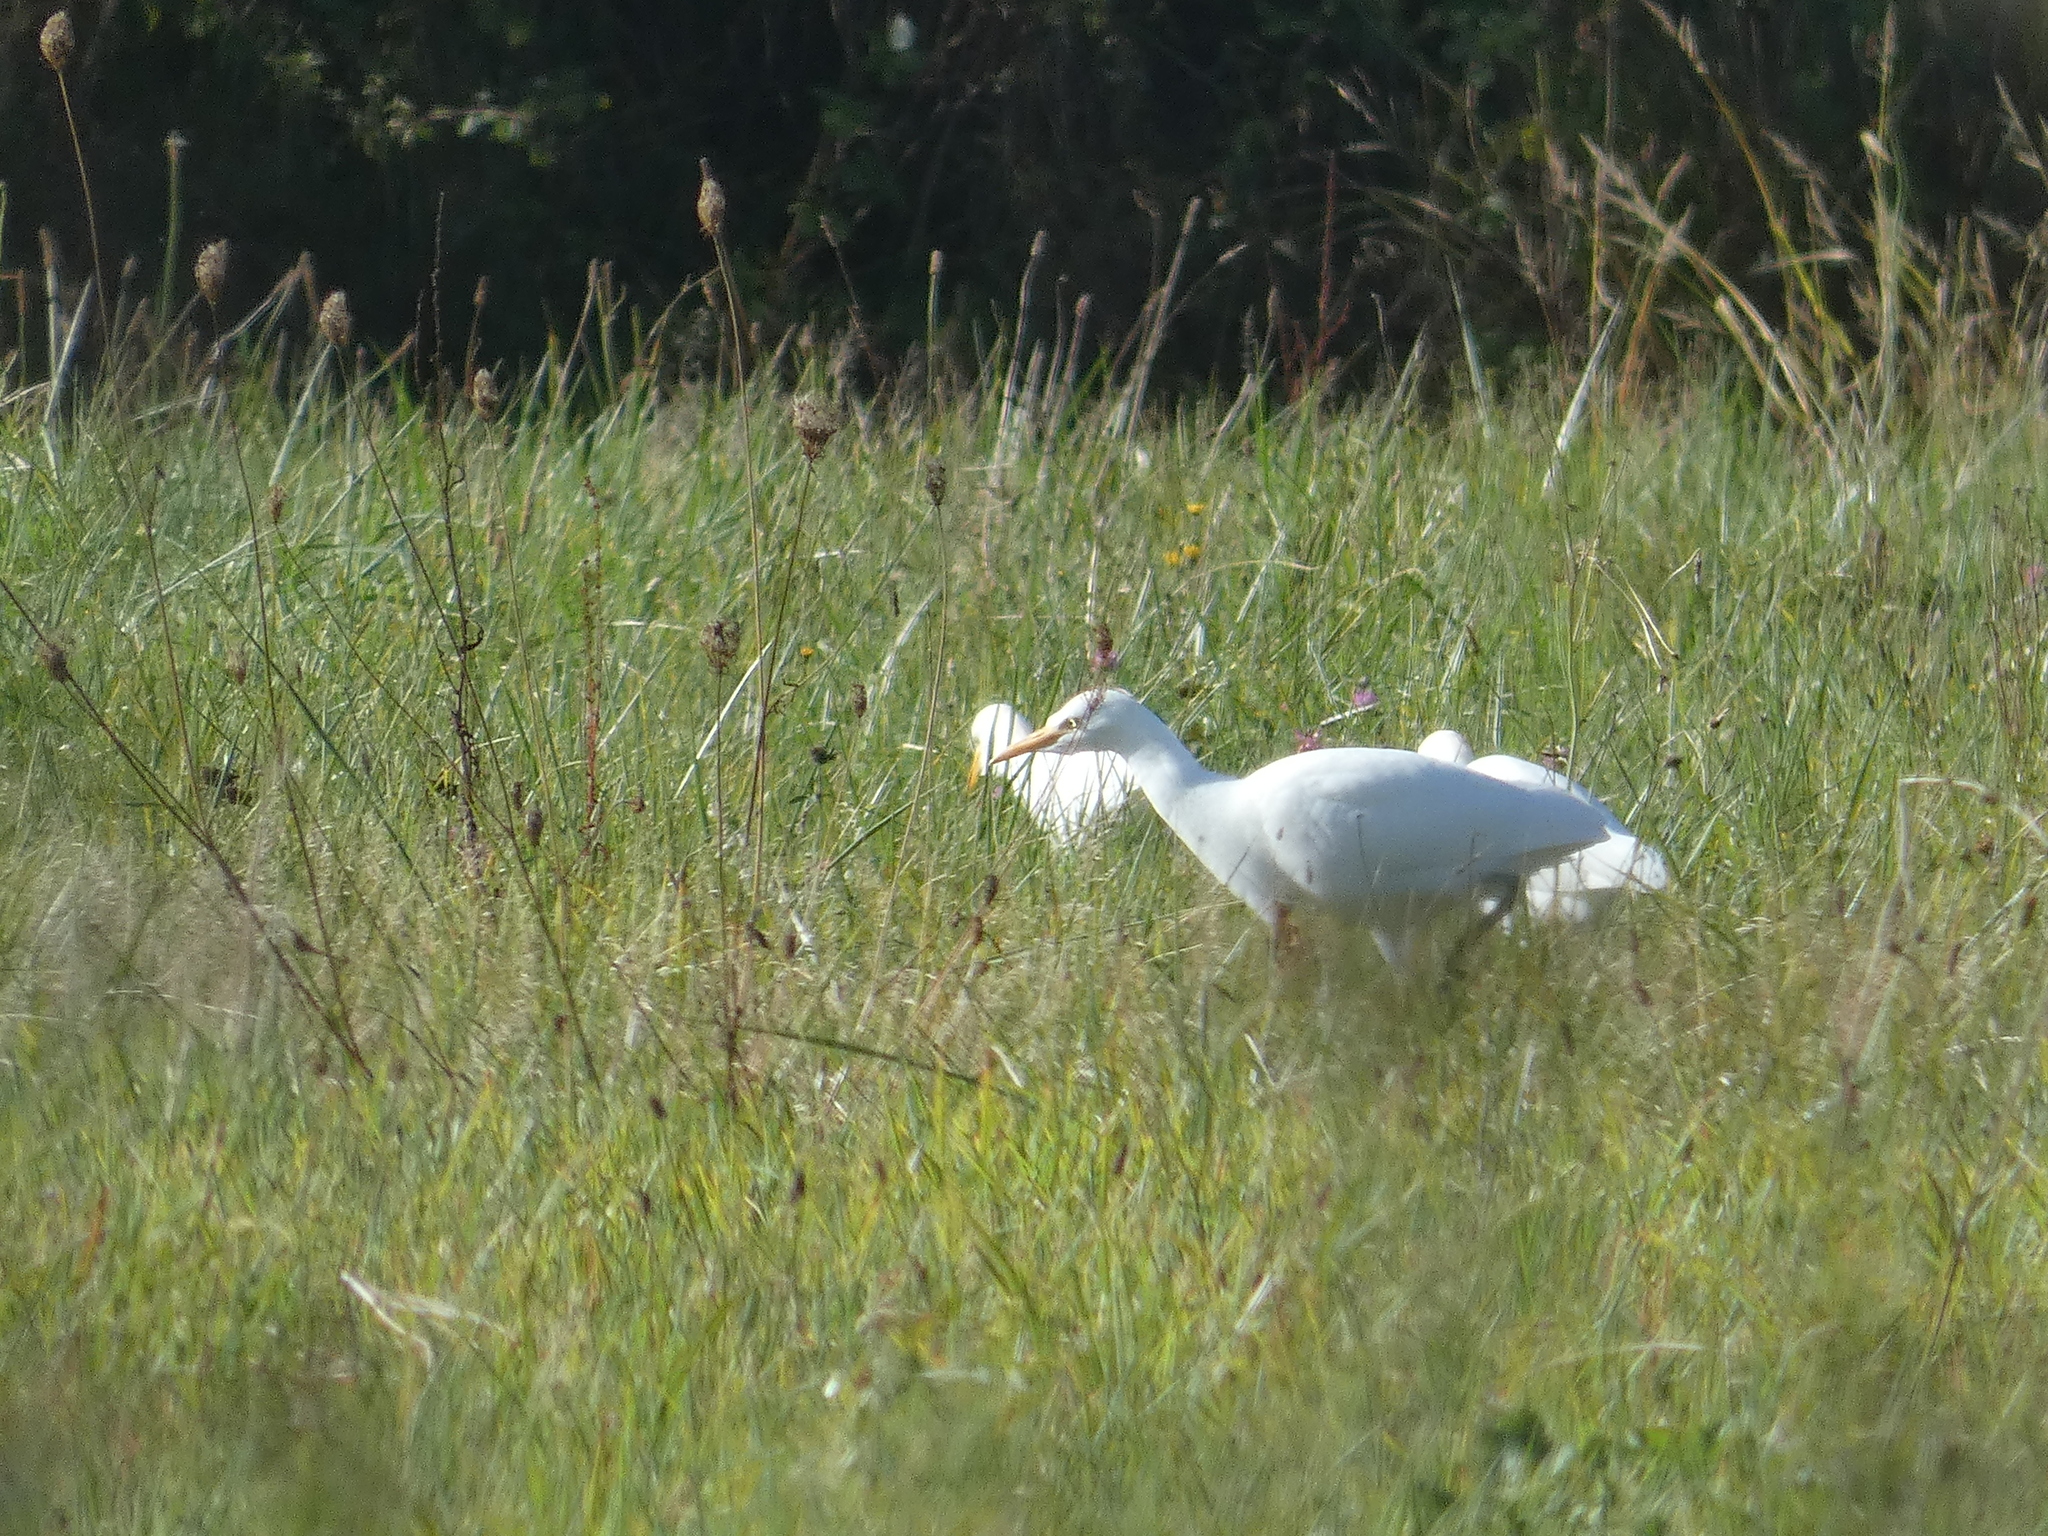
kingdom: Animalia
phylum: Chordata
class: Aves
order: Pelecaniformes
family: Ardeidae
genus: Bubulcus
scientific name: Bubulcus ibis
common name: Cattle egret
